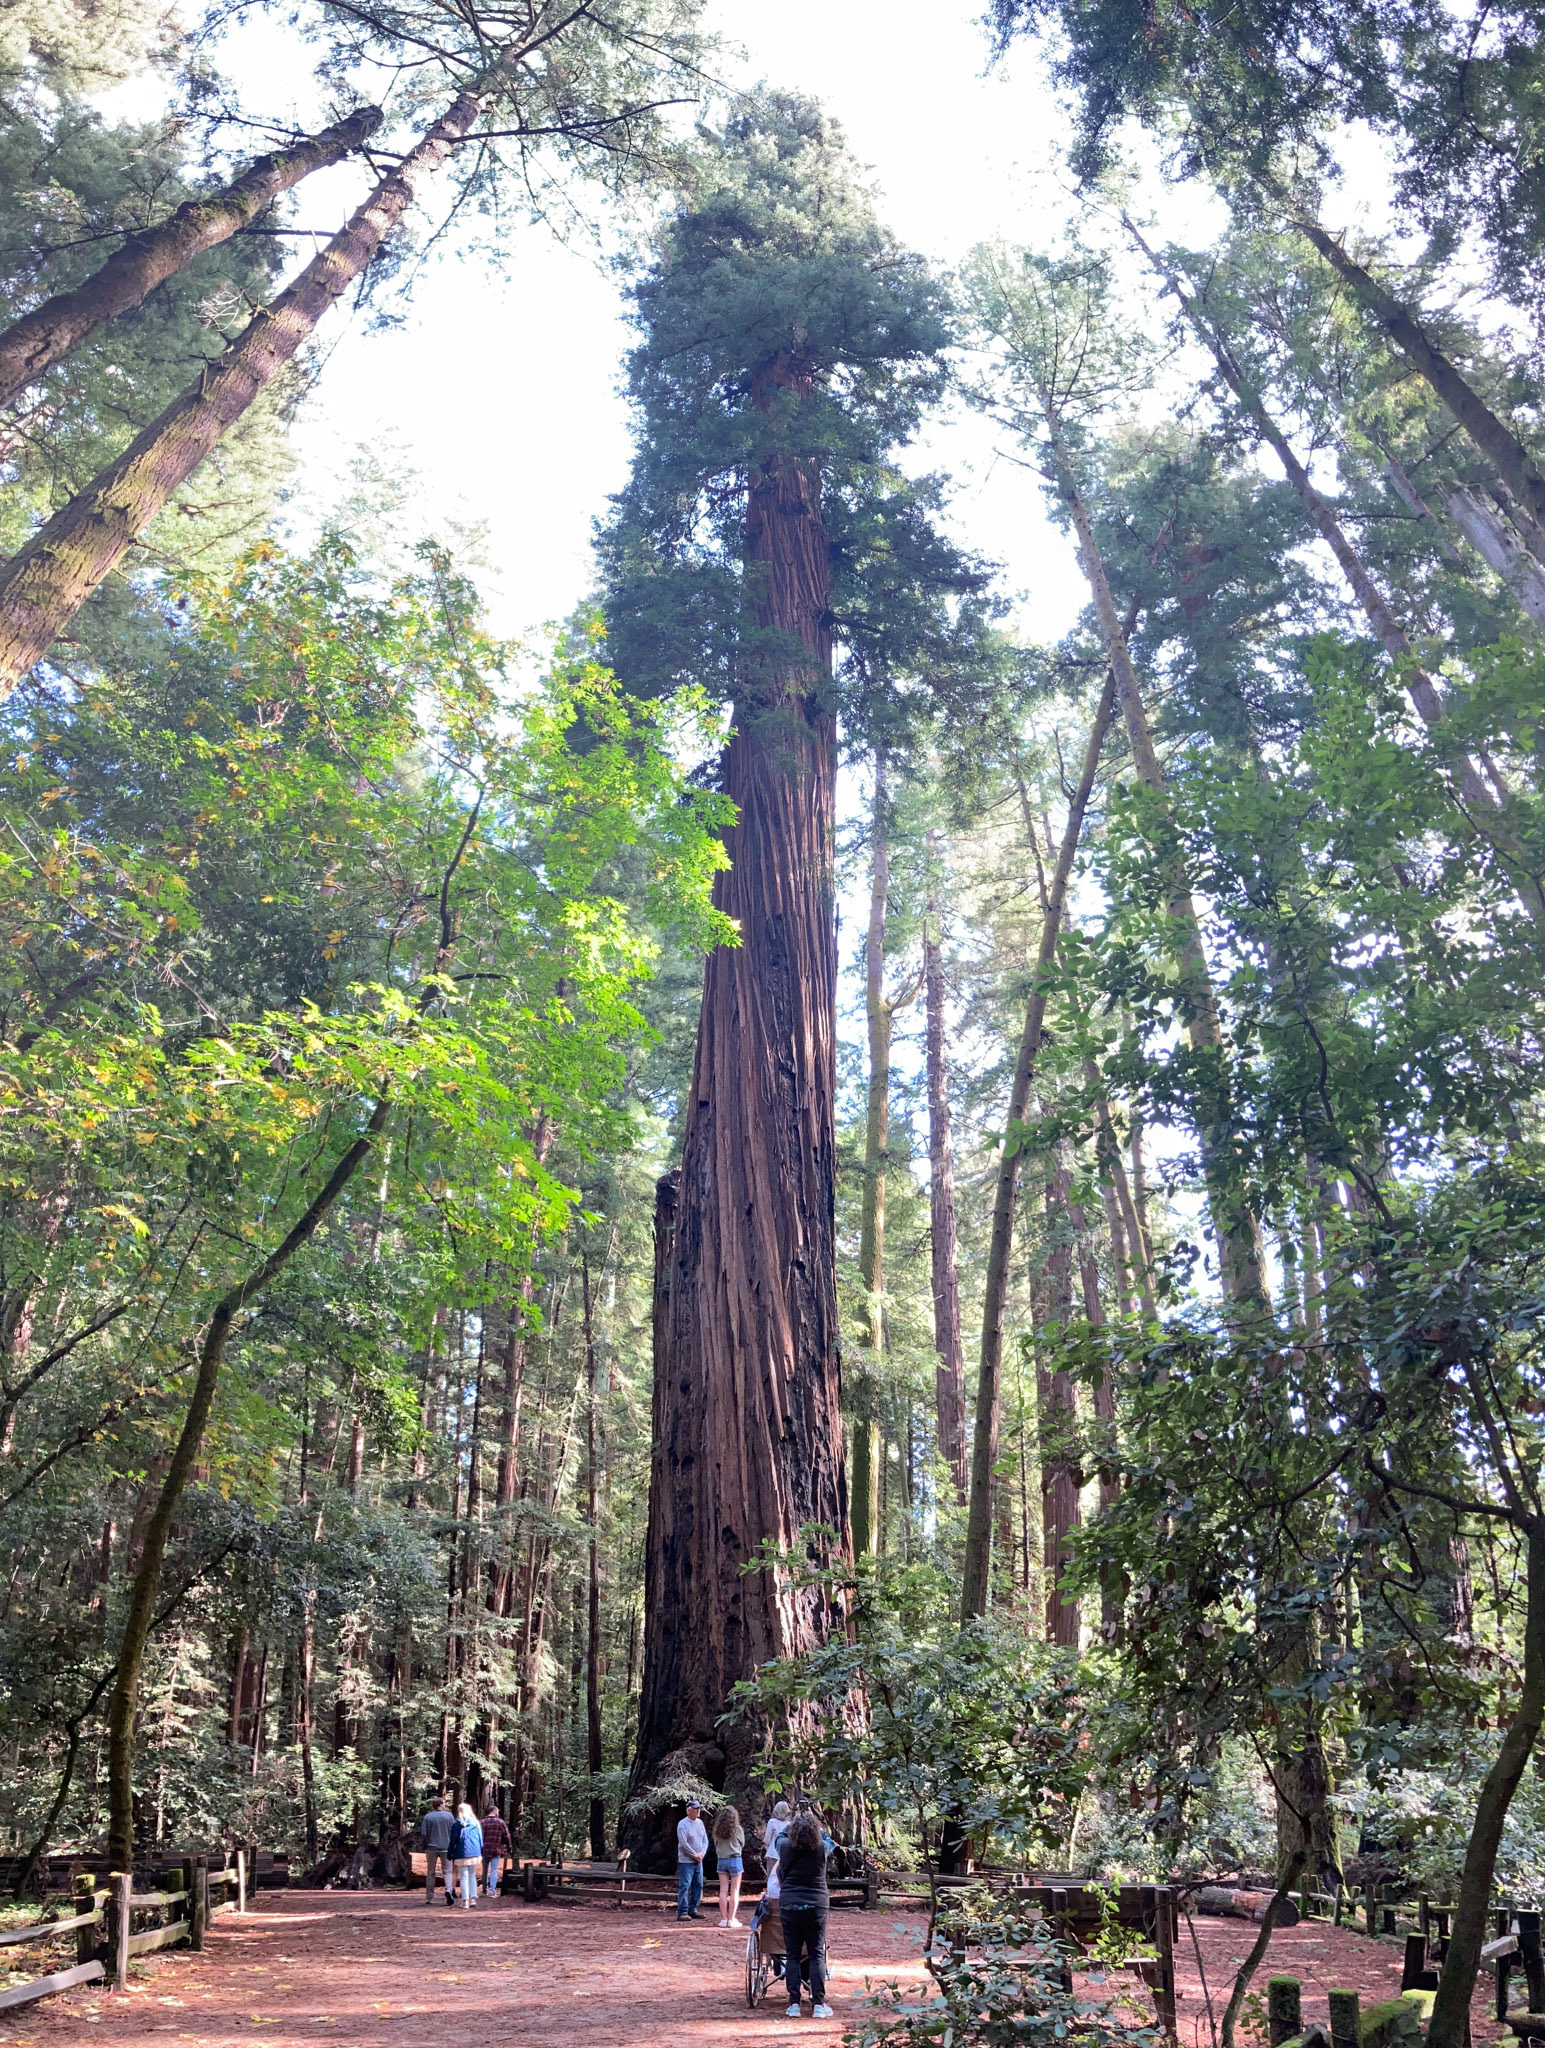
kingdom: Plantae
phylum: Tracheophyta
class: Pinopsida
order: Pinales
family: Cupressaceae
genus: Sequoia
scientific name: Sequoia sempervirens
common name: Coast redwood
